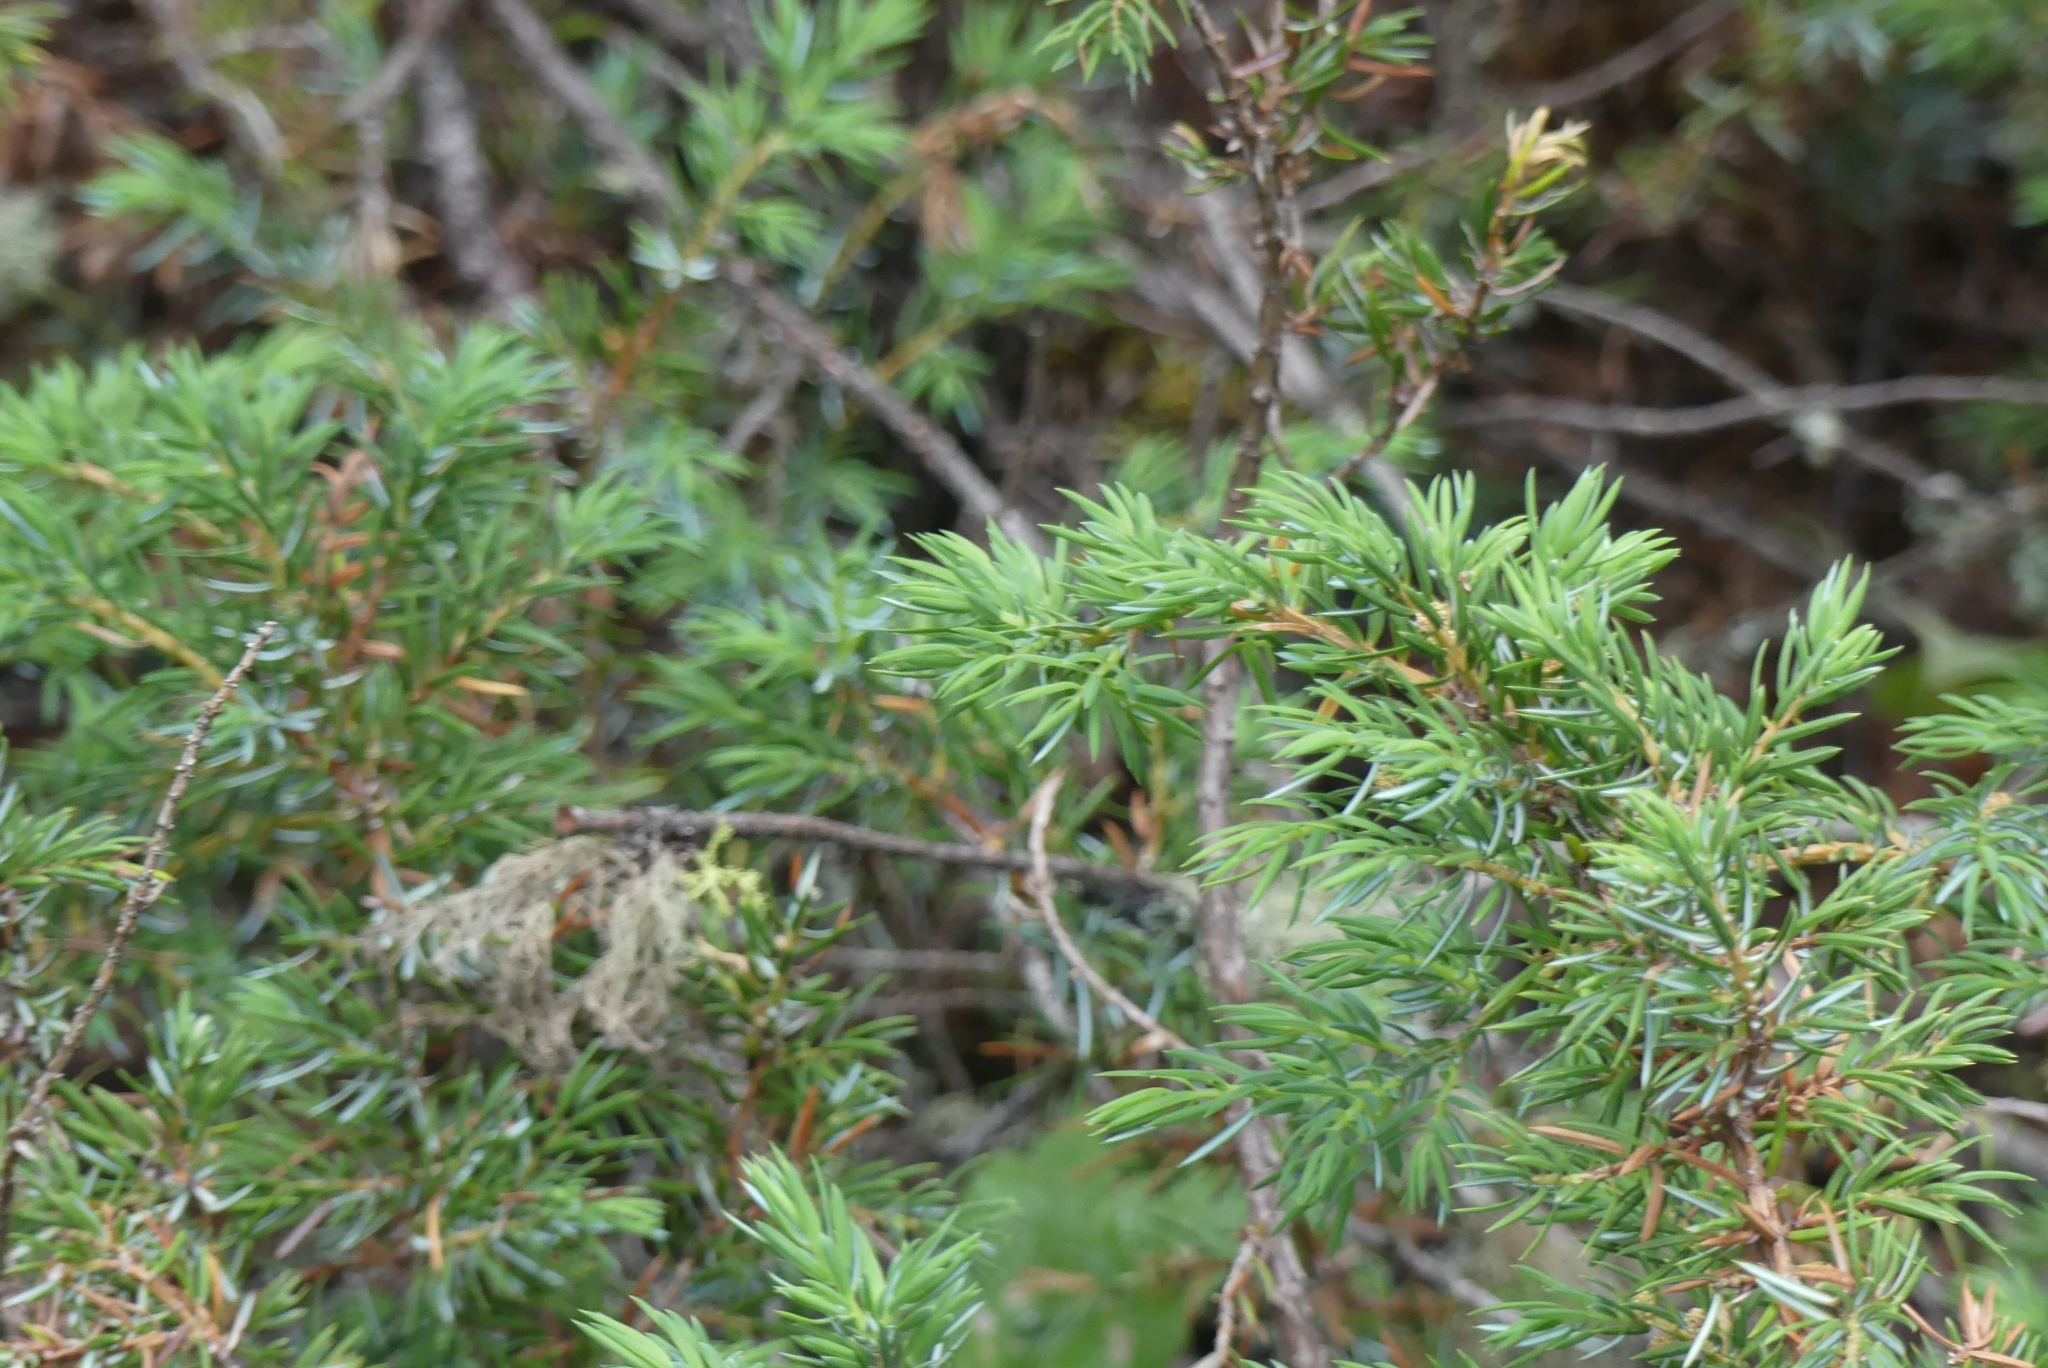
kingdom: Plantae
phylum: Tracheophyta
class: Pinopsida
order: Pinales
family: Cupressaceae
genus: Juniperus
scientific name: Juniperus communis
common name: Common juniper
